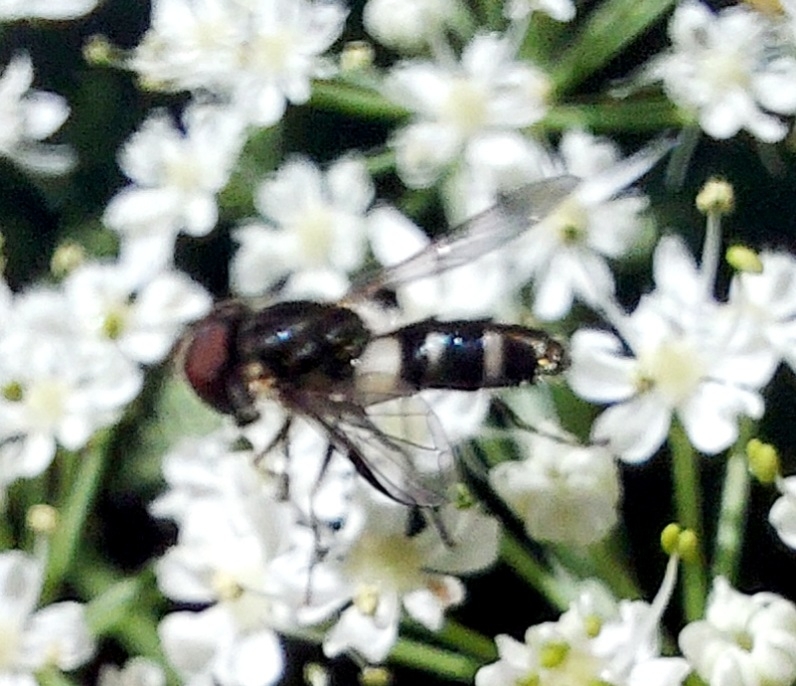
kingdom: Animalia
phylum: Arthropoda
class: Insecta
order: Diptera
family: Syrphidae
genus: Leucozona
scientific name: Leucozona laternaria
